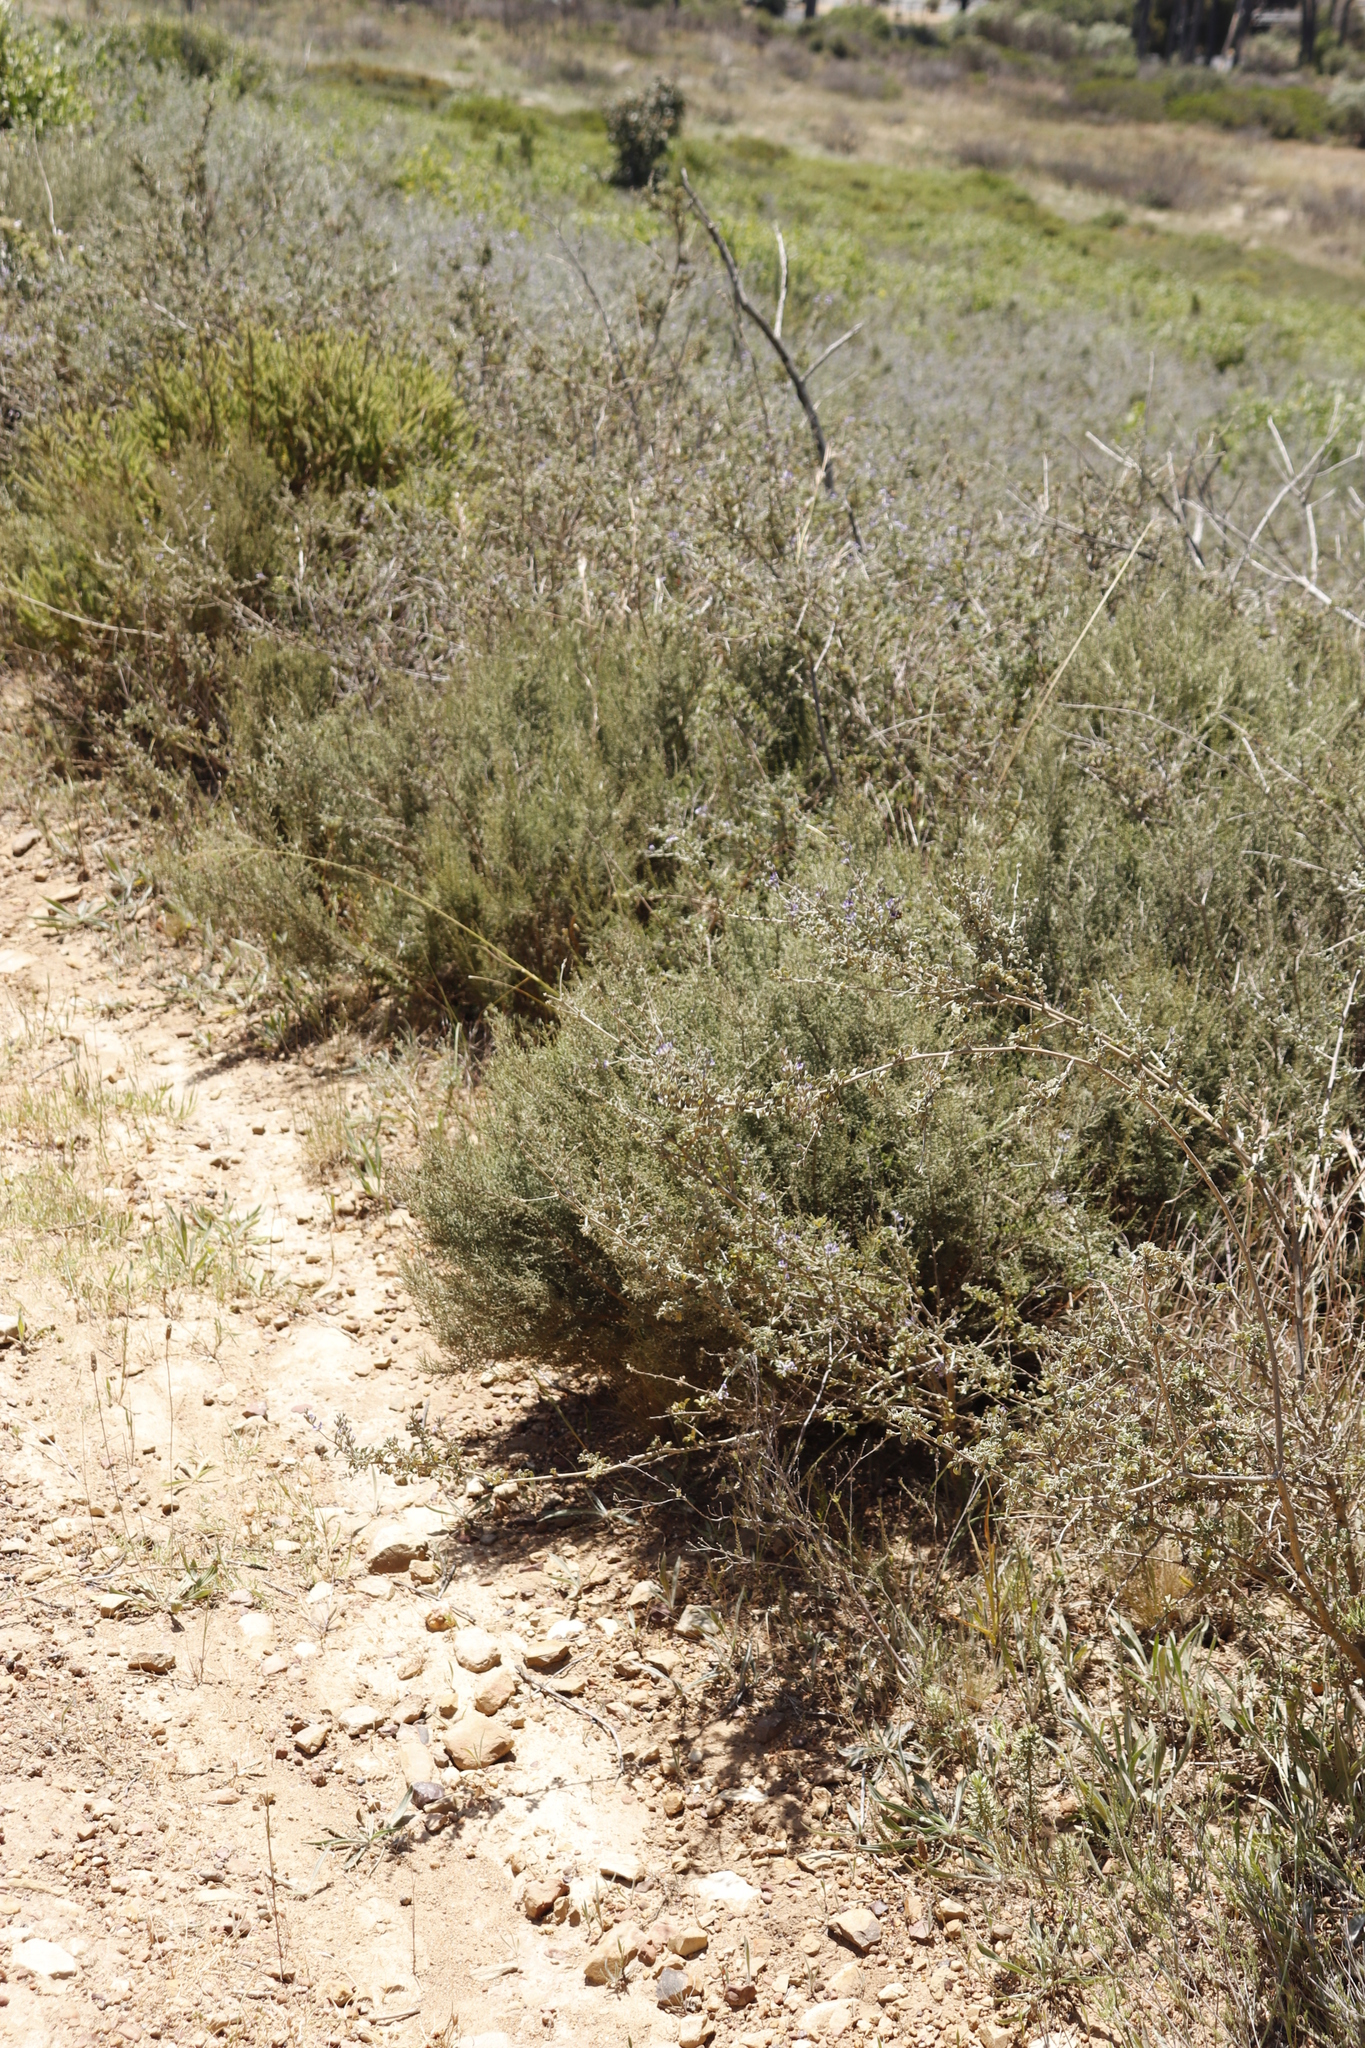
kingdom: Plantae
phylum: Tracheophyta
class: Magnoliopsida
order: Asterales
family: Asteraceae
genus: Dicerothamnus
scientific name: Dicerothamnus rhinocerotis
